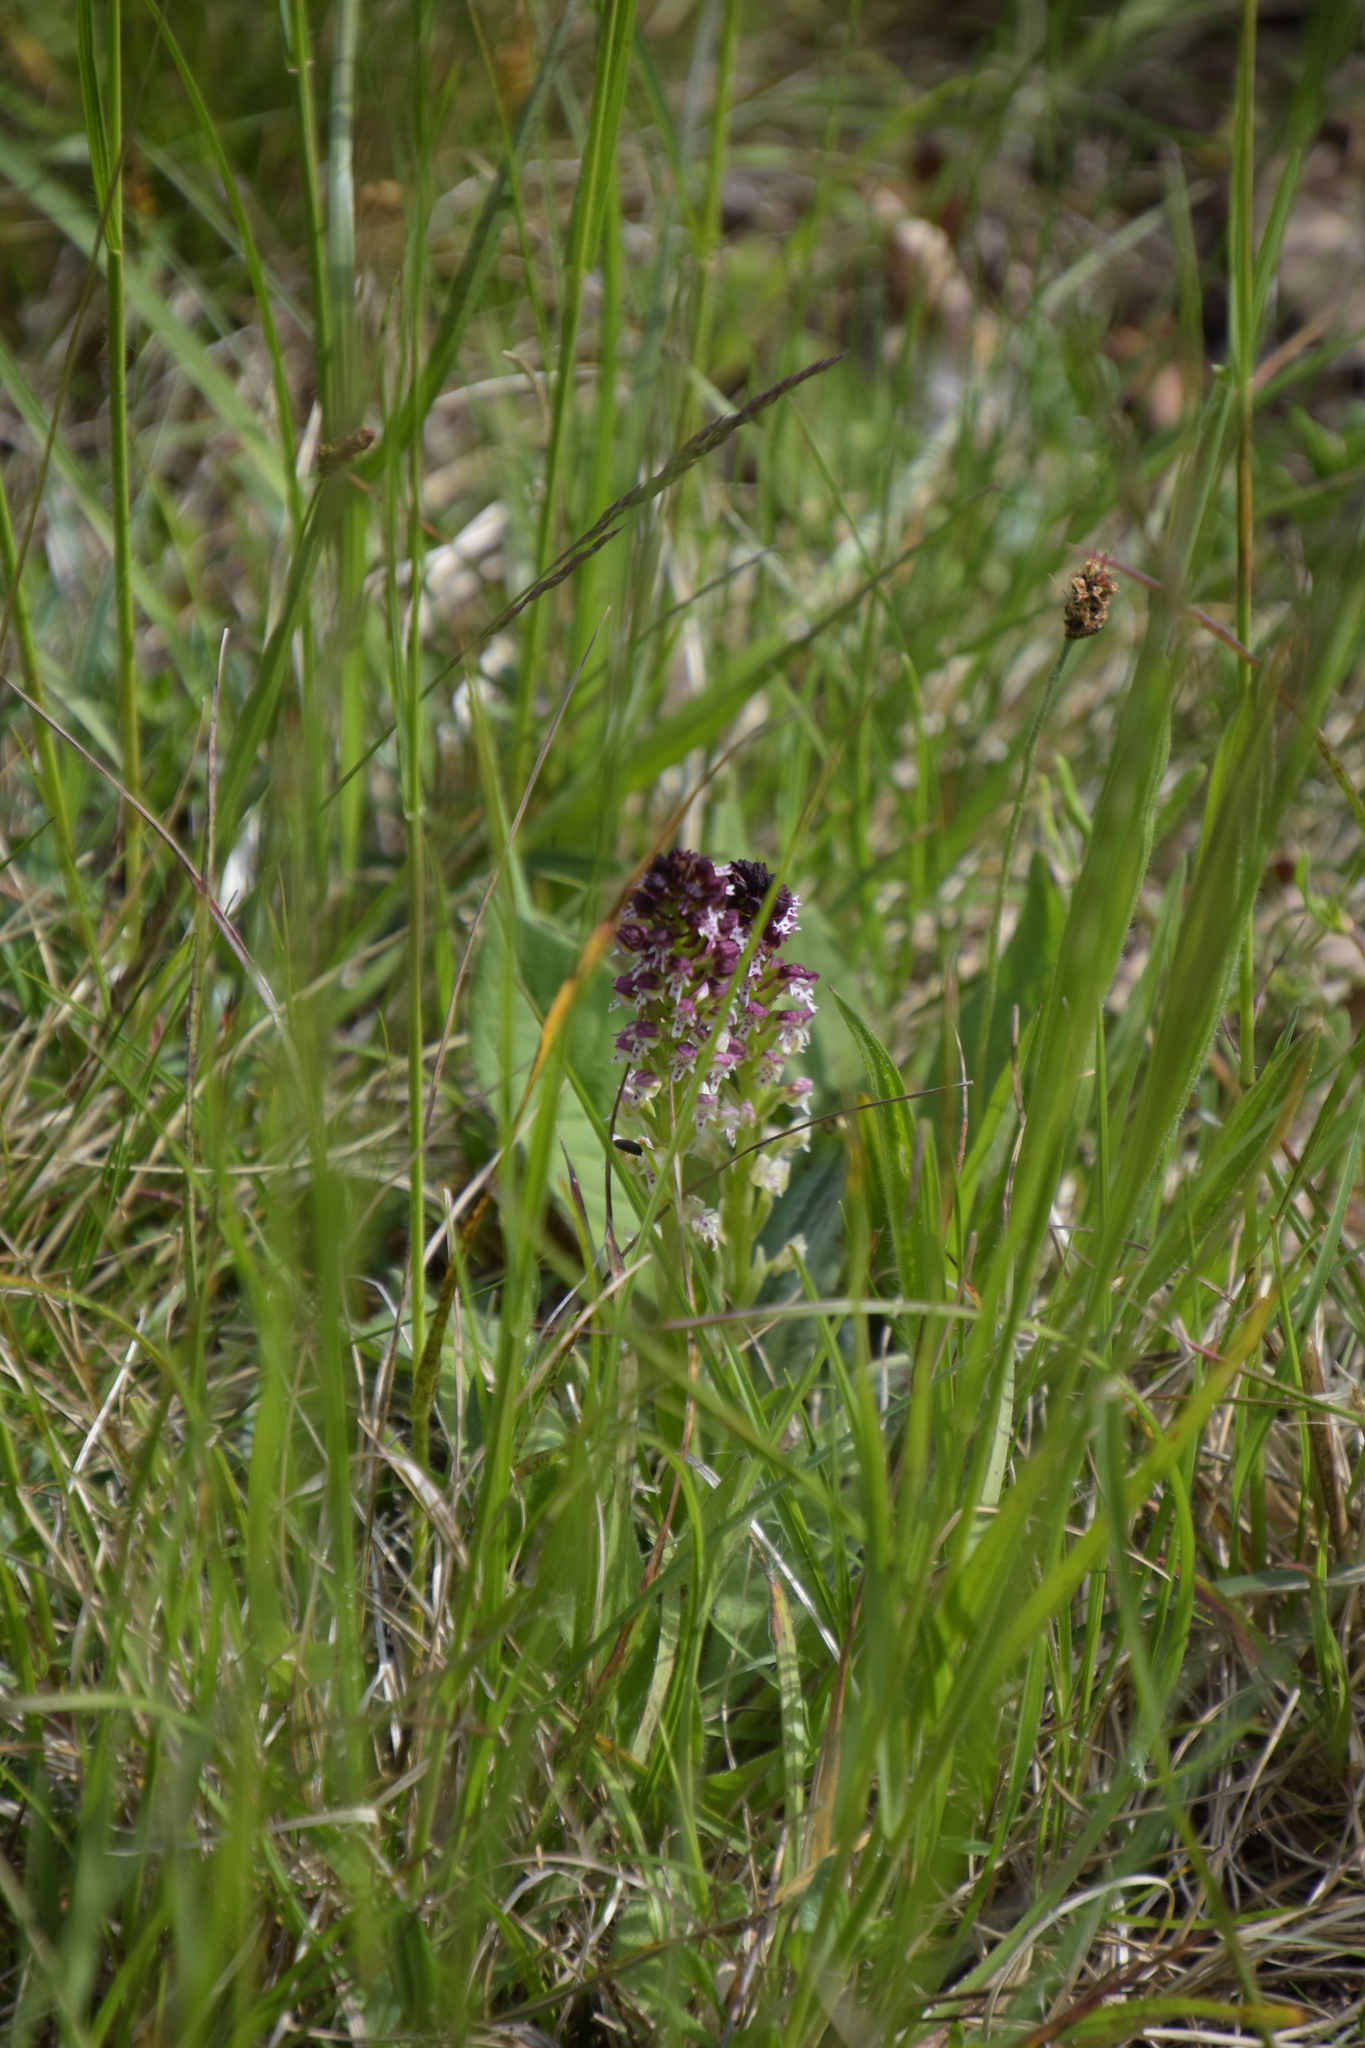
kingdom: Plantae
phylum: Tracheophyta
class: Liliopsida
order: Asparagales
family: Orchidaceae
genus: Neotinea
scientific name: Neotinea ustulata
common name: Burnt orchid
